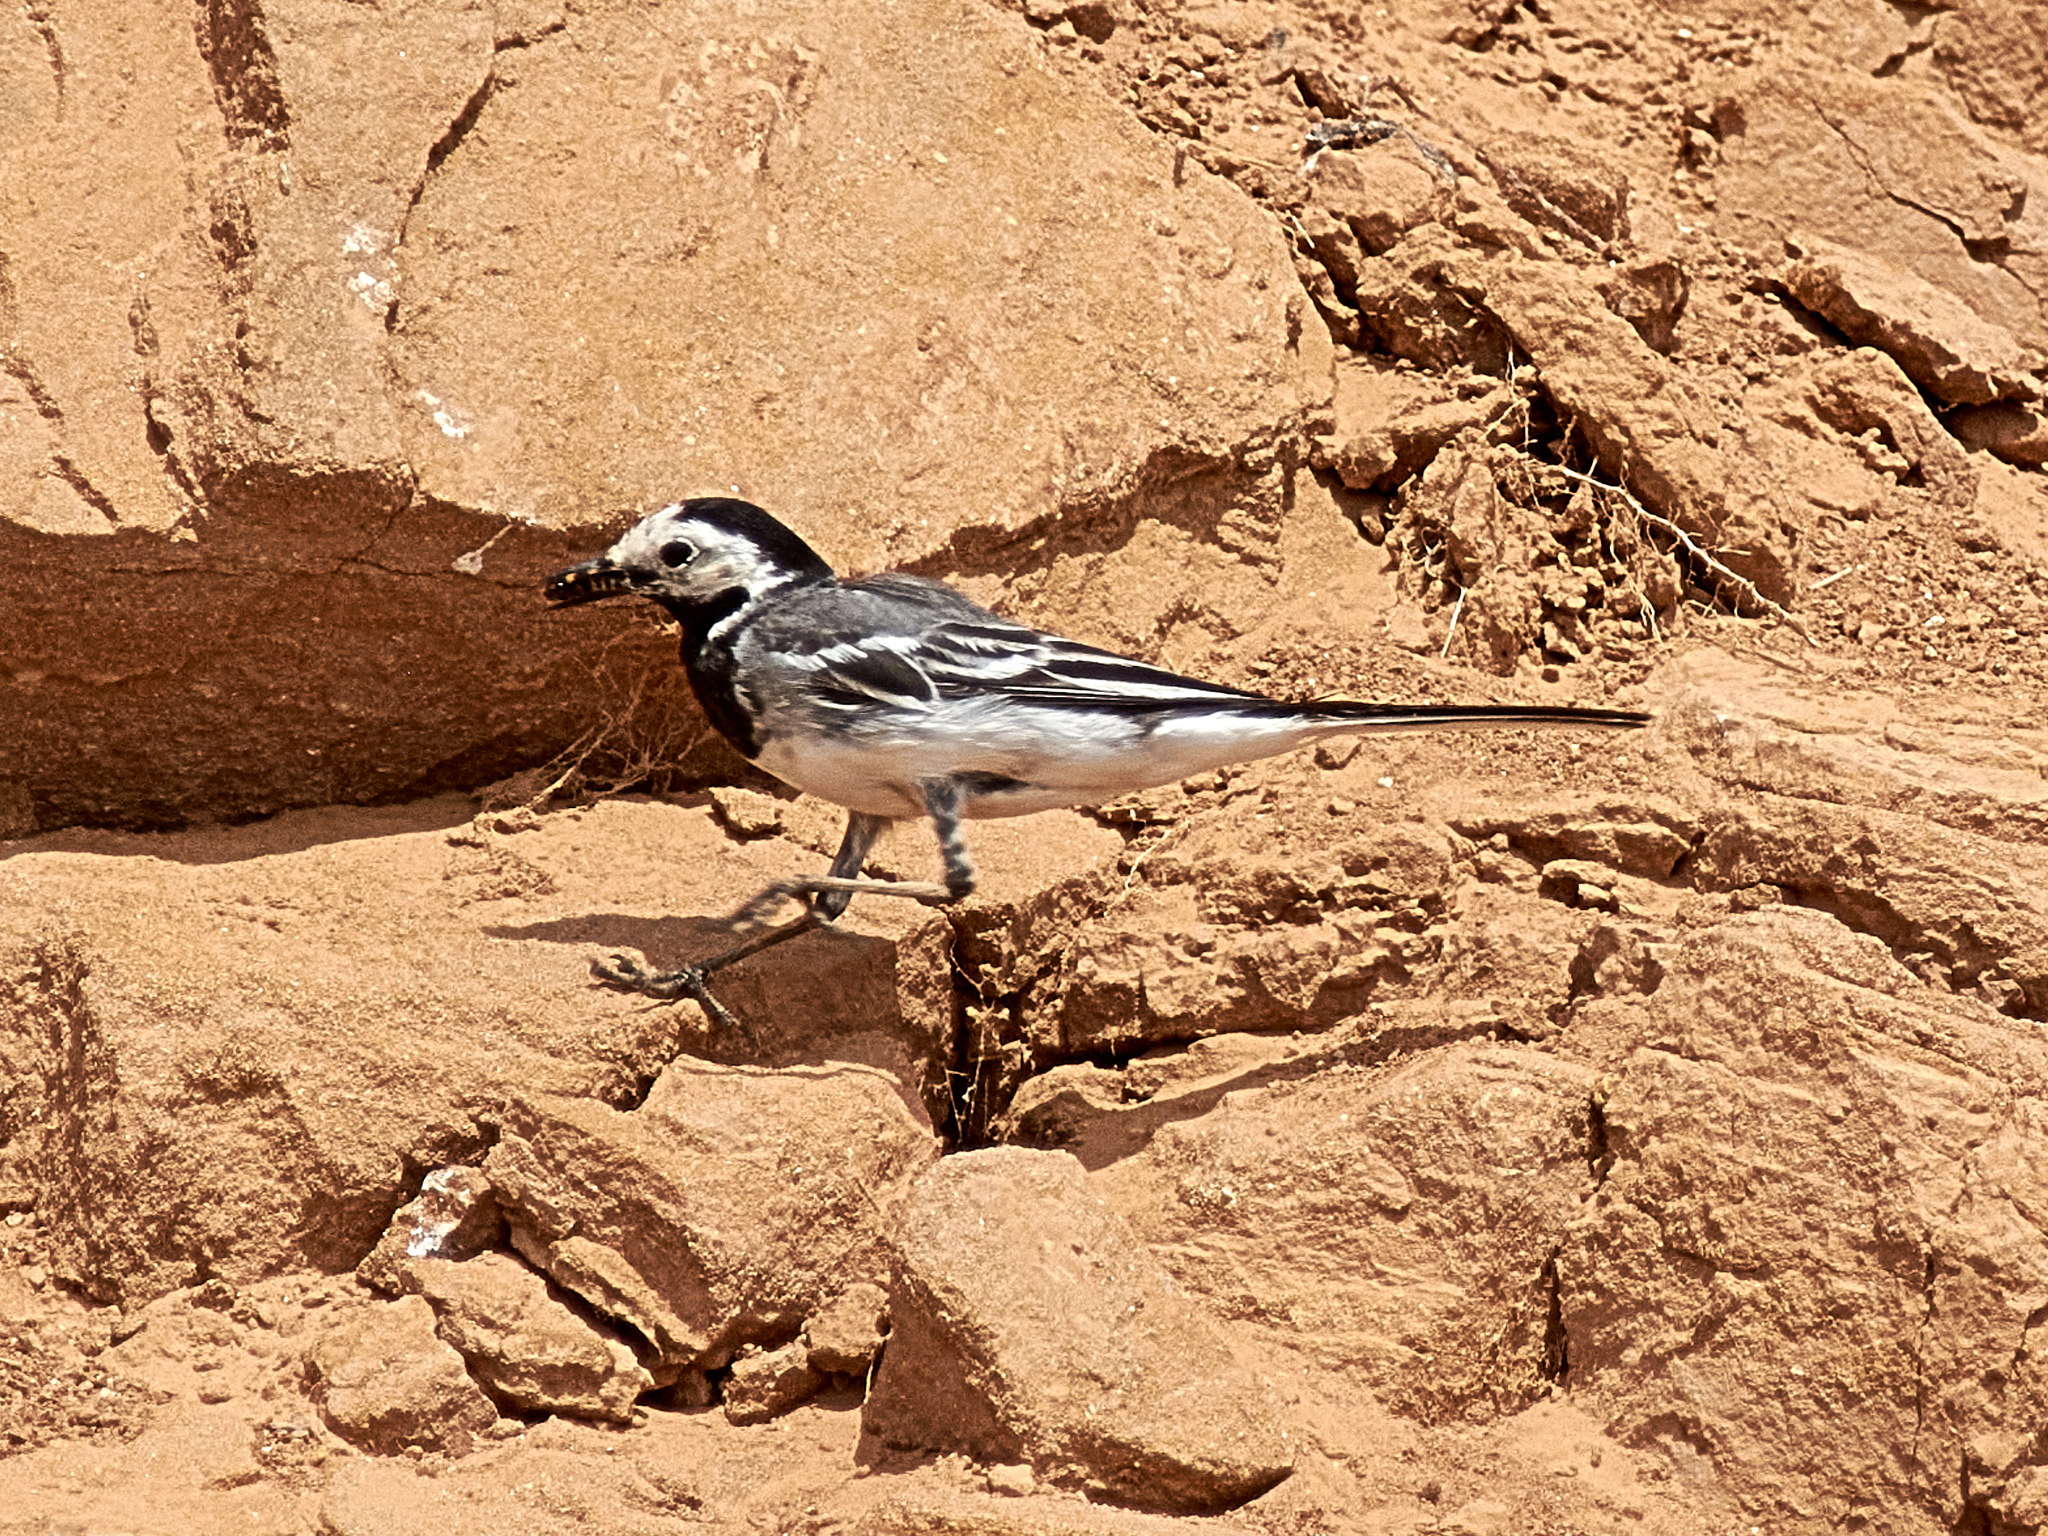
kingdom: Animalia
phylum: Chordata
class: Aves
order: Passeriformes
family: Motacillidae
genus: Motacilla
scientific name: Motacilla alba
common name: White wagtail
